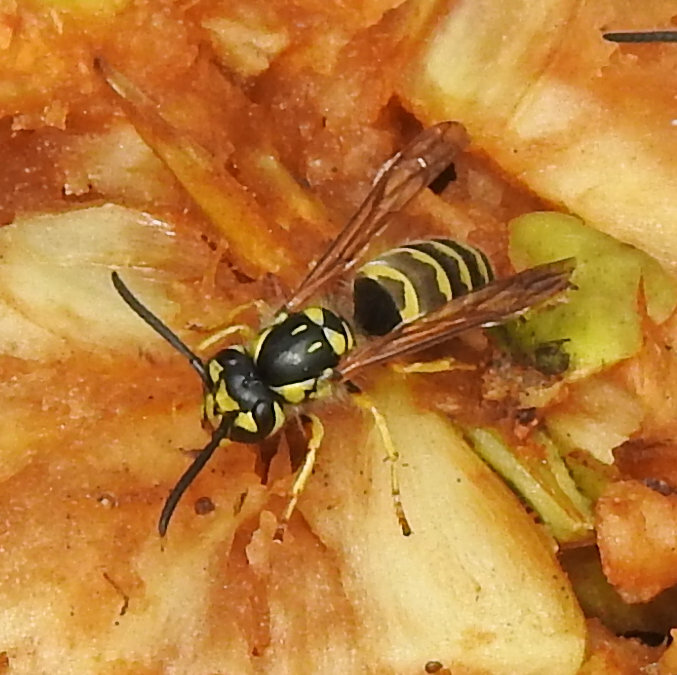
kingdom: Animalia
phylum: Arthropoda
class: Insecta
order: Hymenoptera
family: Vespidae
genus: Vespula
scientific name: Vespula flavopilosa
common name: Downy yellowjacket
